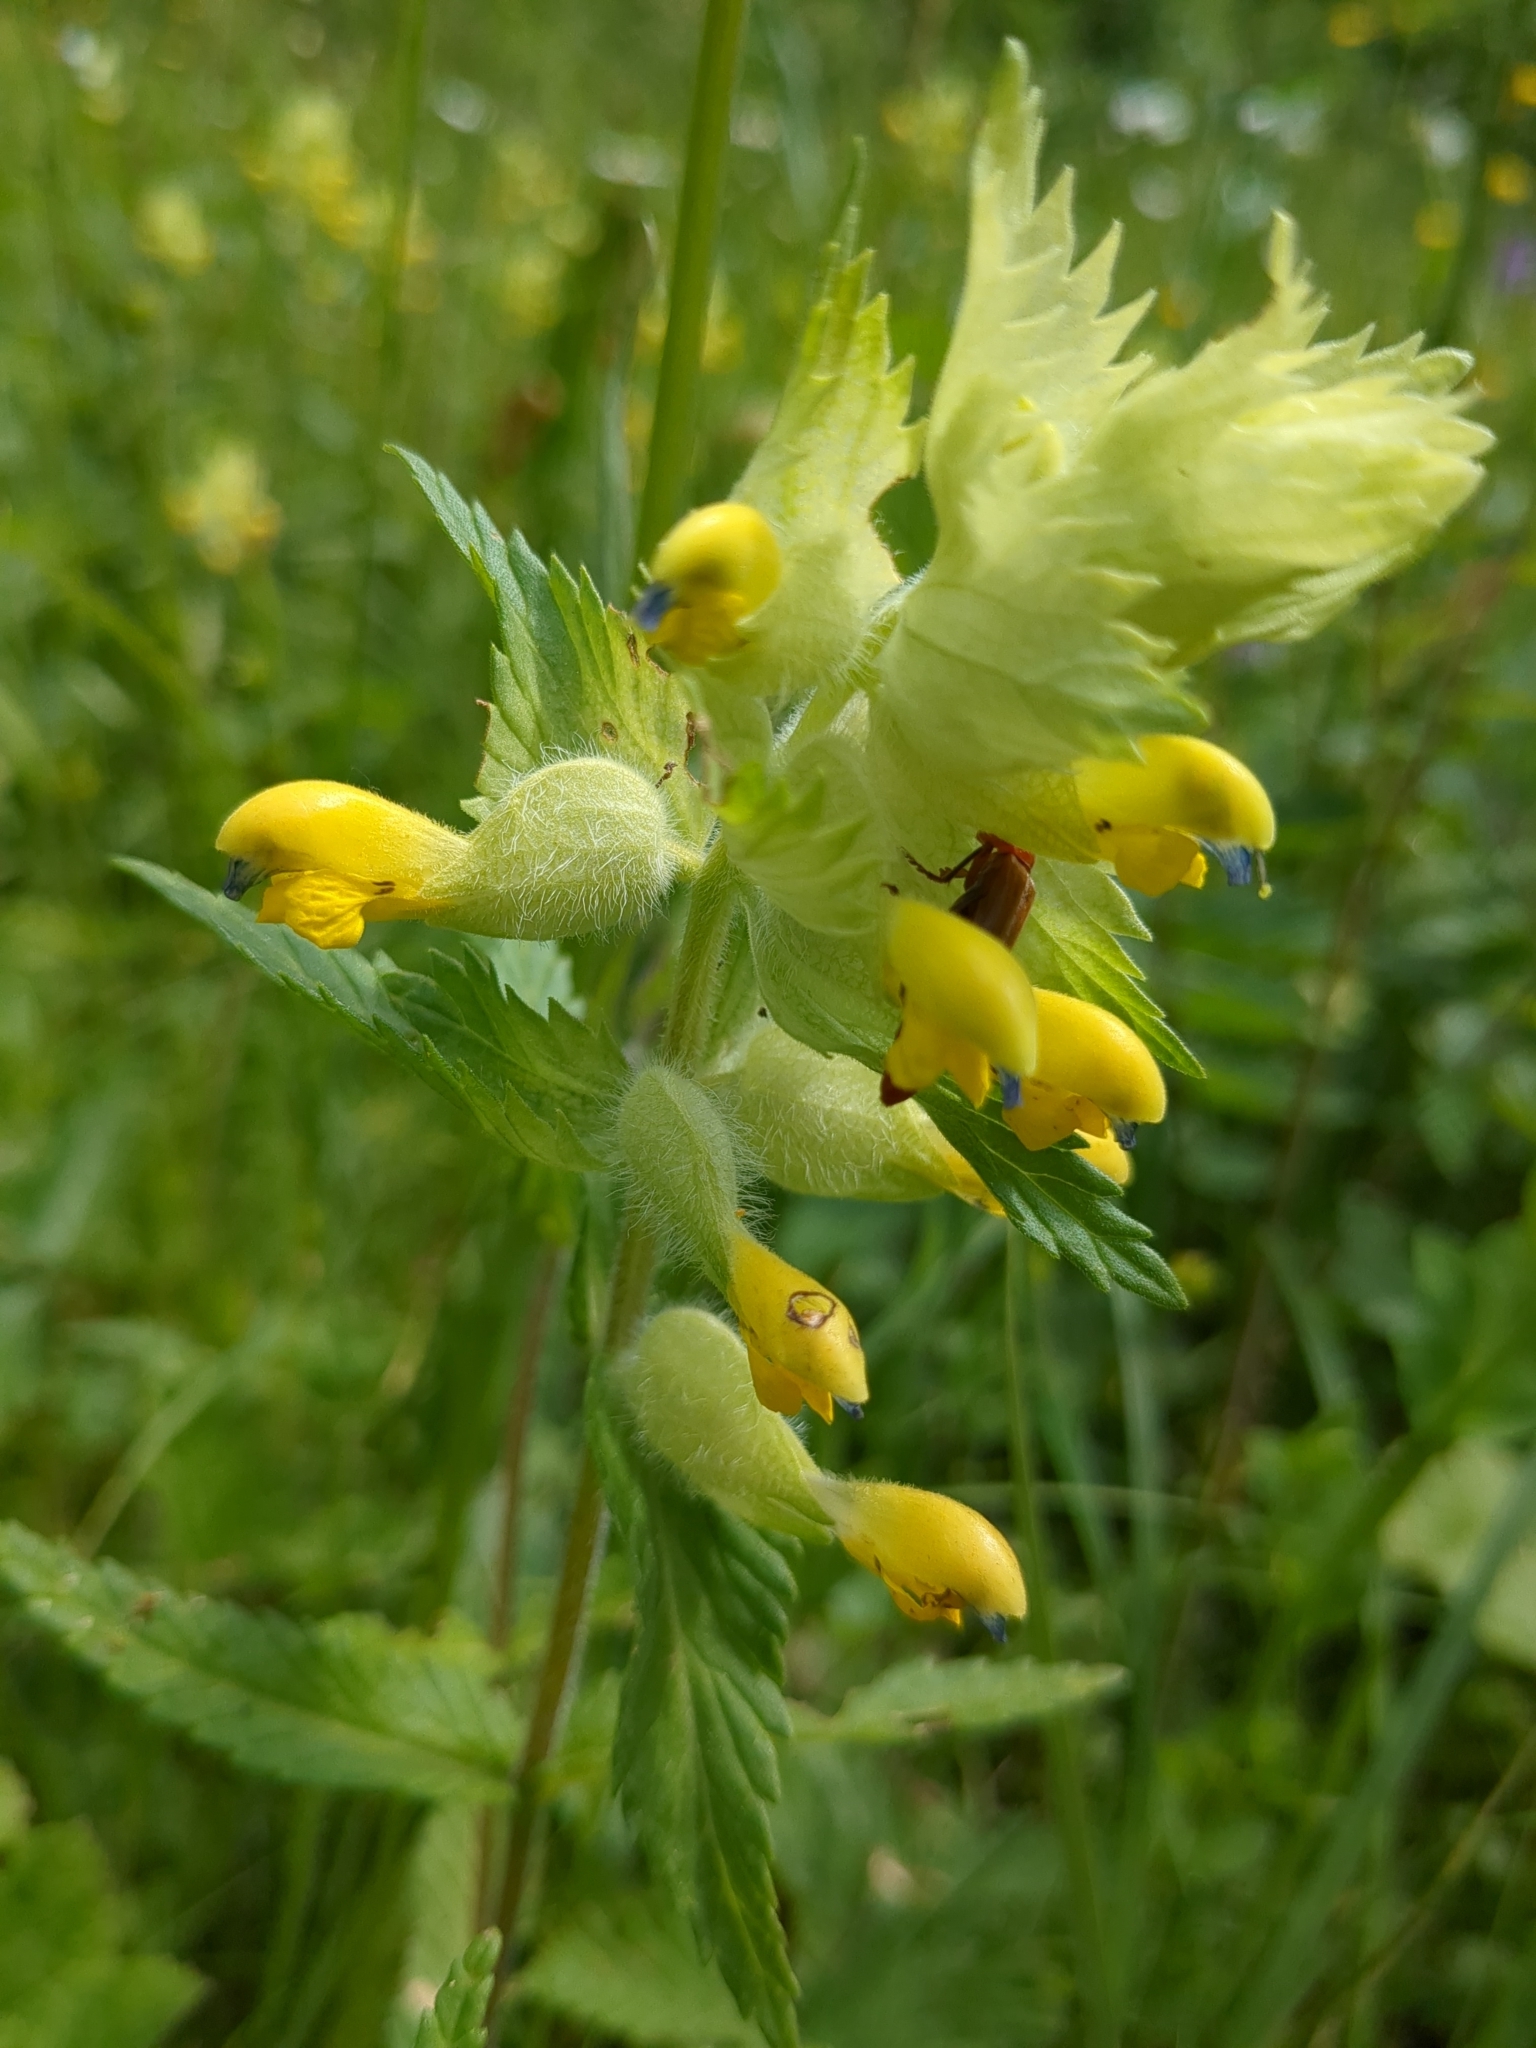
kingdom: Plantae
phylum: Tracheophyta
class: Magnoliopsida
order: Lamiales
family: Orobanchaceae
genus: Rhinanthus
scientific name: Rhinanthus alectorolophus
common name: Greater yellow-rattle
